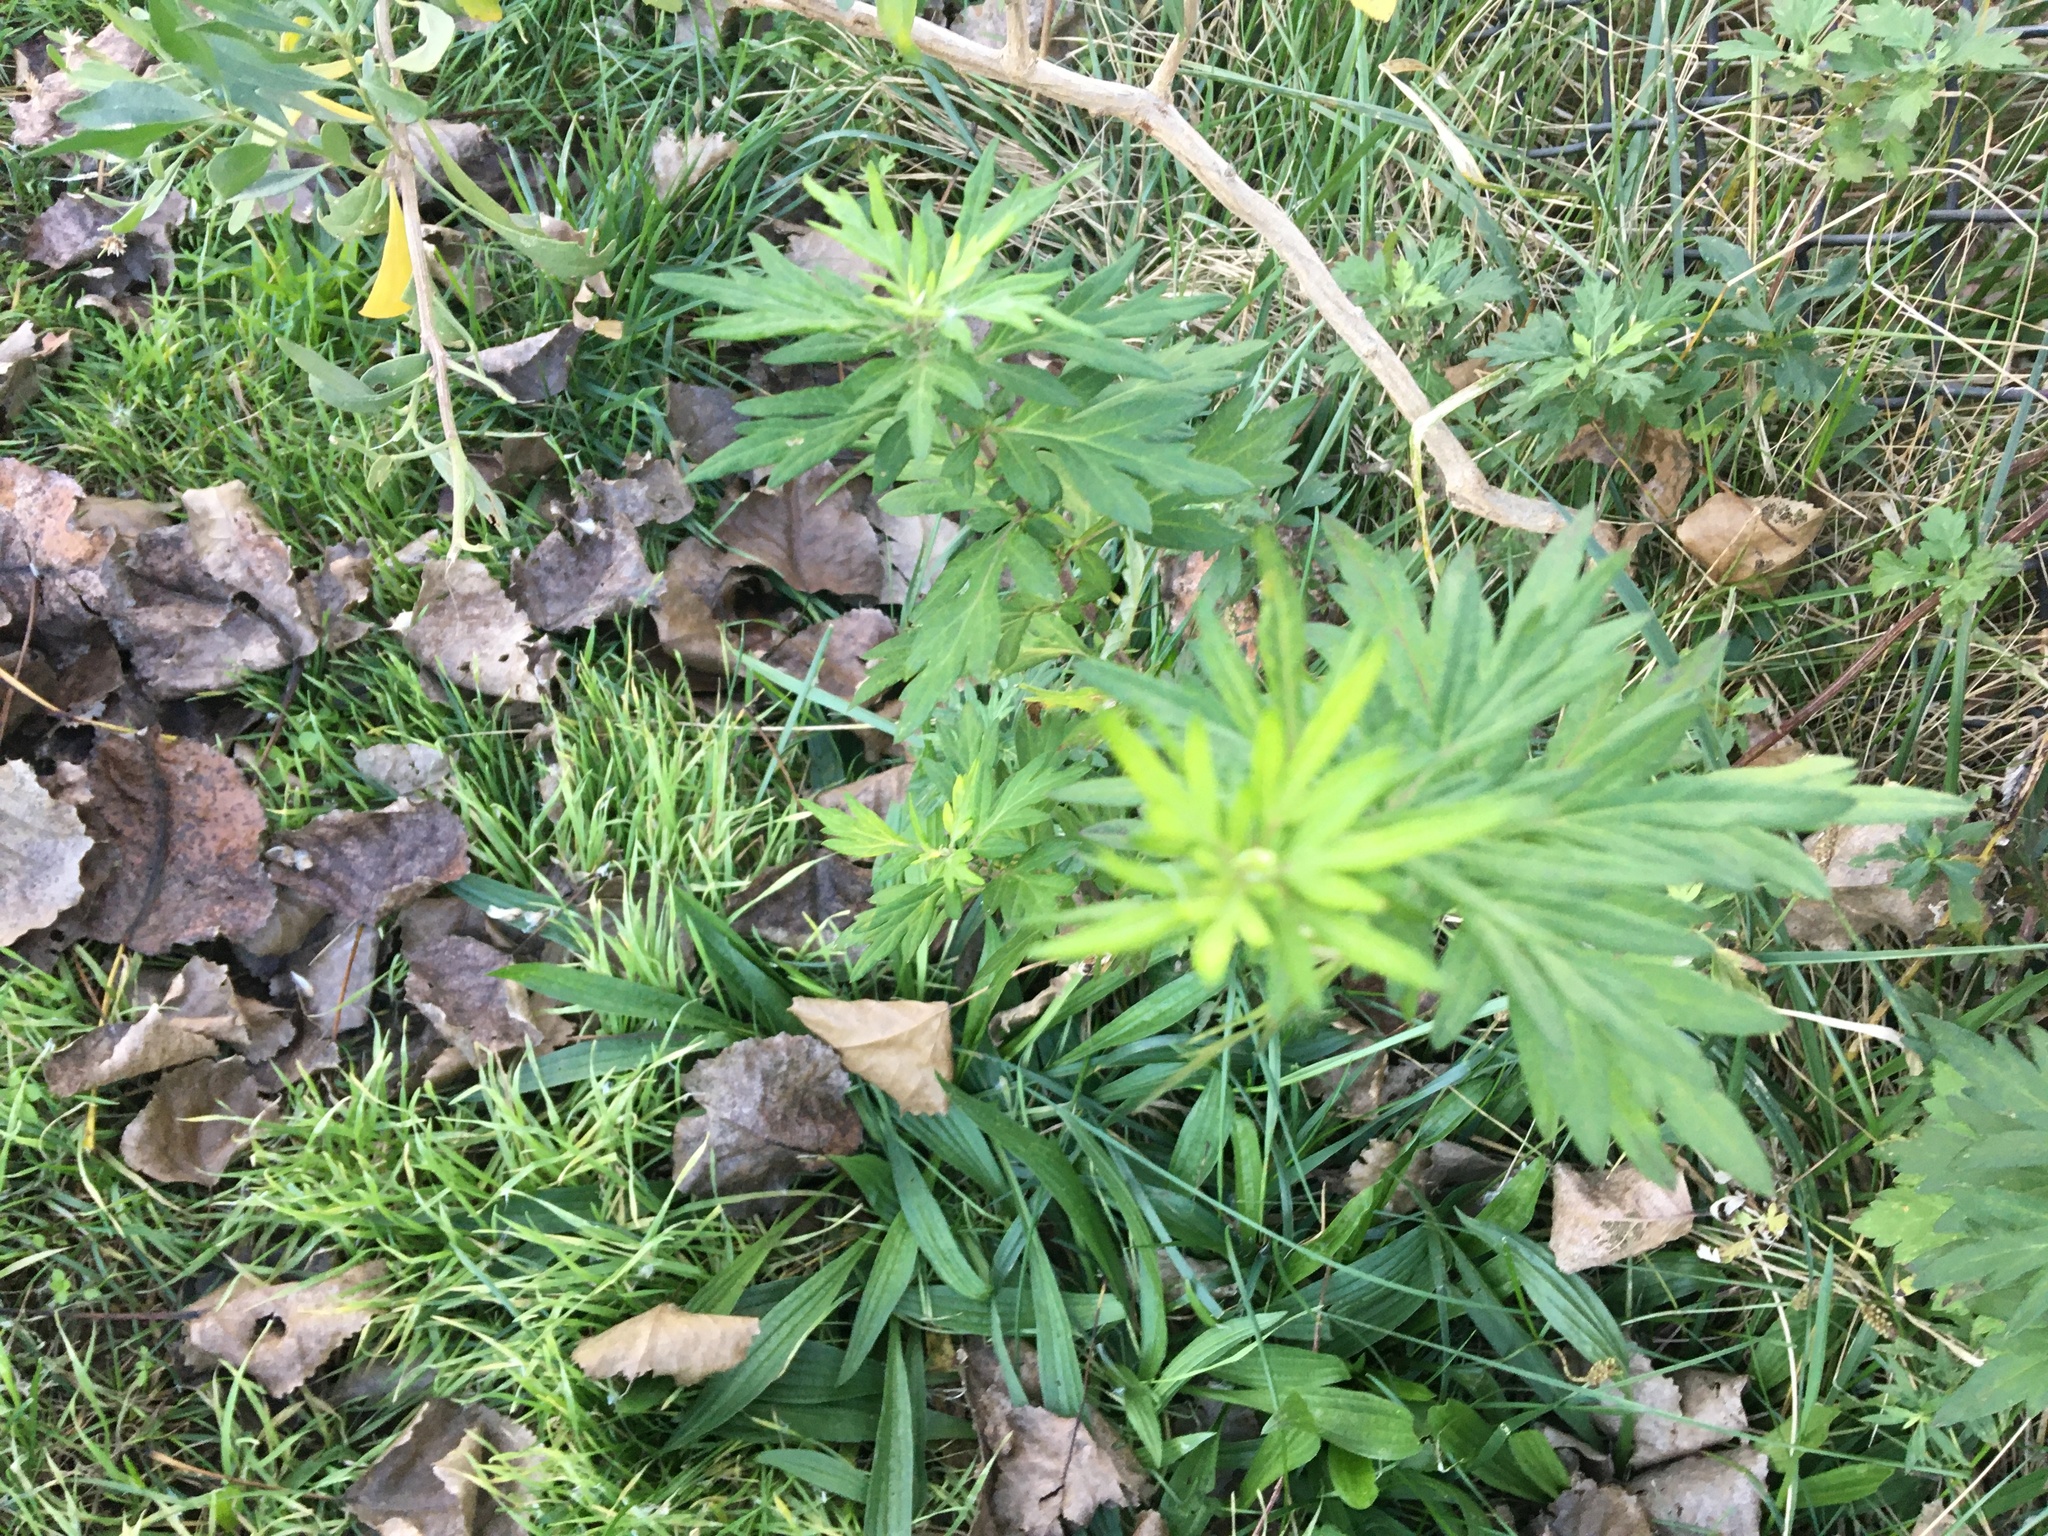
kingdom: Plantae
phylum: Tracheophyta
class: Magnoliopsida
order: Asterales
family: Asteraceae
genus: Artemisia
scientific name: Artemisia vulgaris
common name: Mugwort
